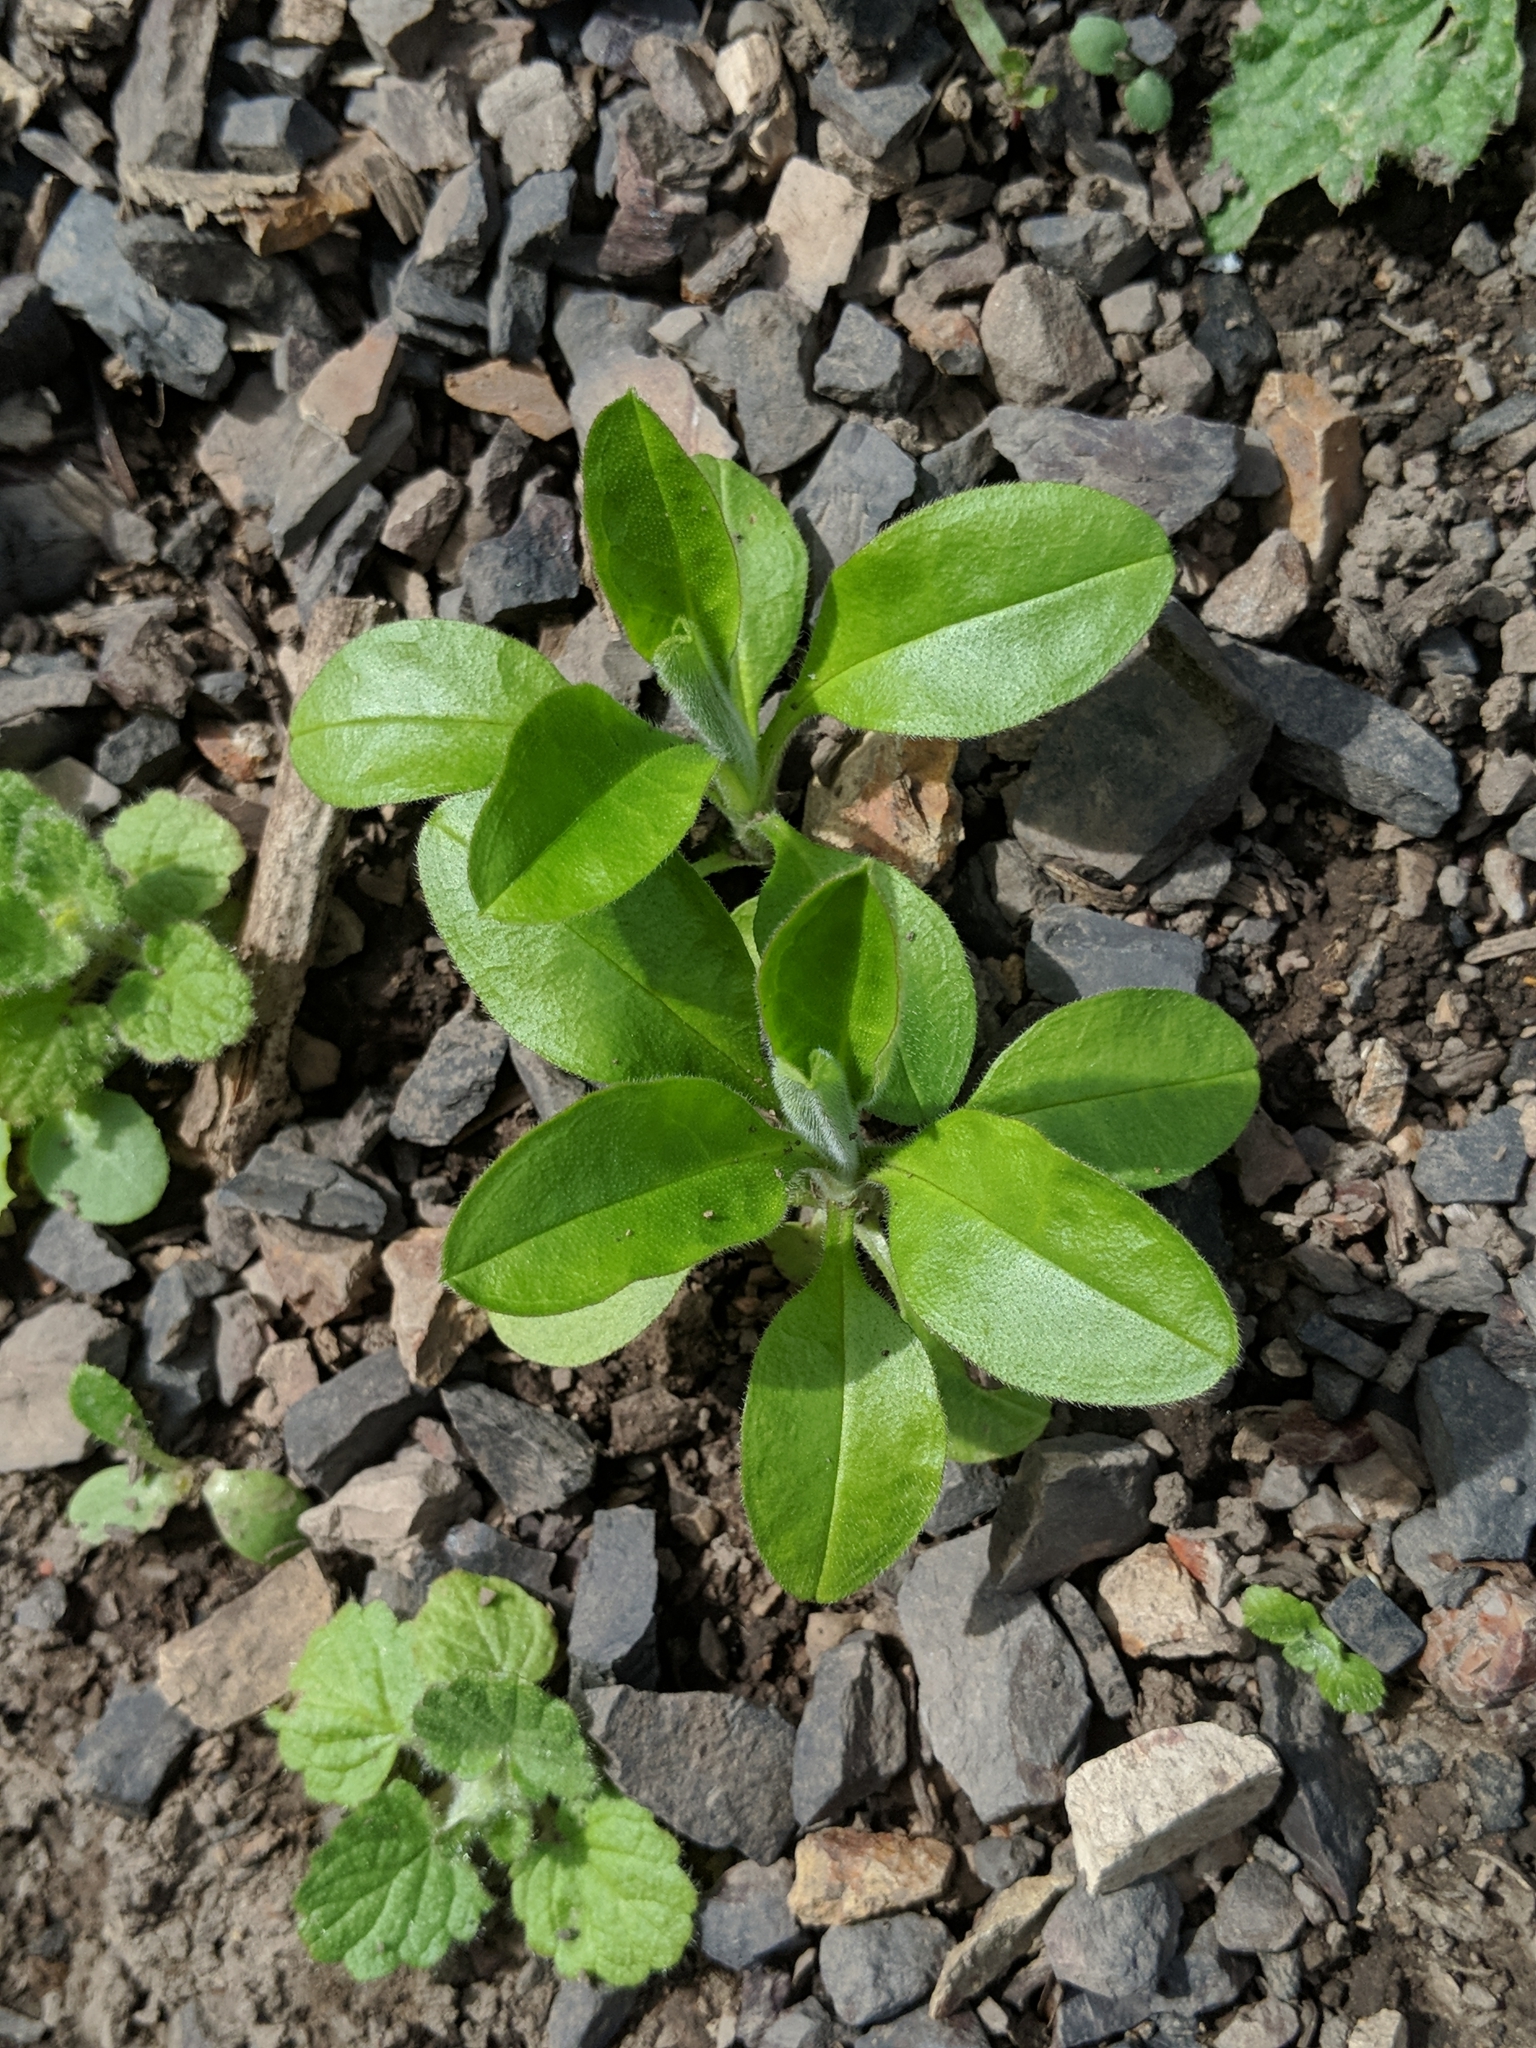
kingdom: Plantae
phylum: Tracheophyta
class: Magnoliopsida
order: Boraginales
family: Boraginaceae
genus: Myosotis
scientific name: Myosotis latifolia
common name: Broadleaf forget-me-not
